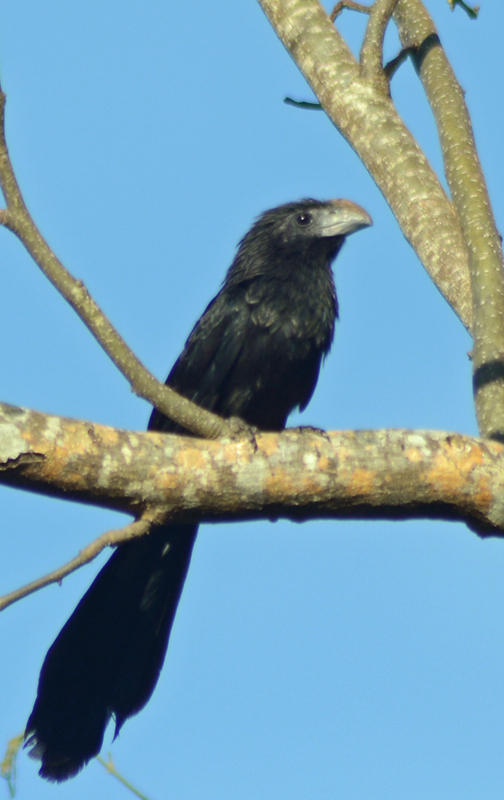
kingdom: Animalia
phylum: Chordata
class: Aves
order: Cuculiformes
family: Cuculidae
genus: Crotophaga
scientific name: Crotophaga sulcirostris
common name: Groove-billed ani
